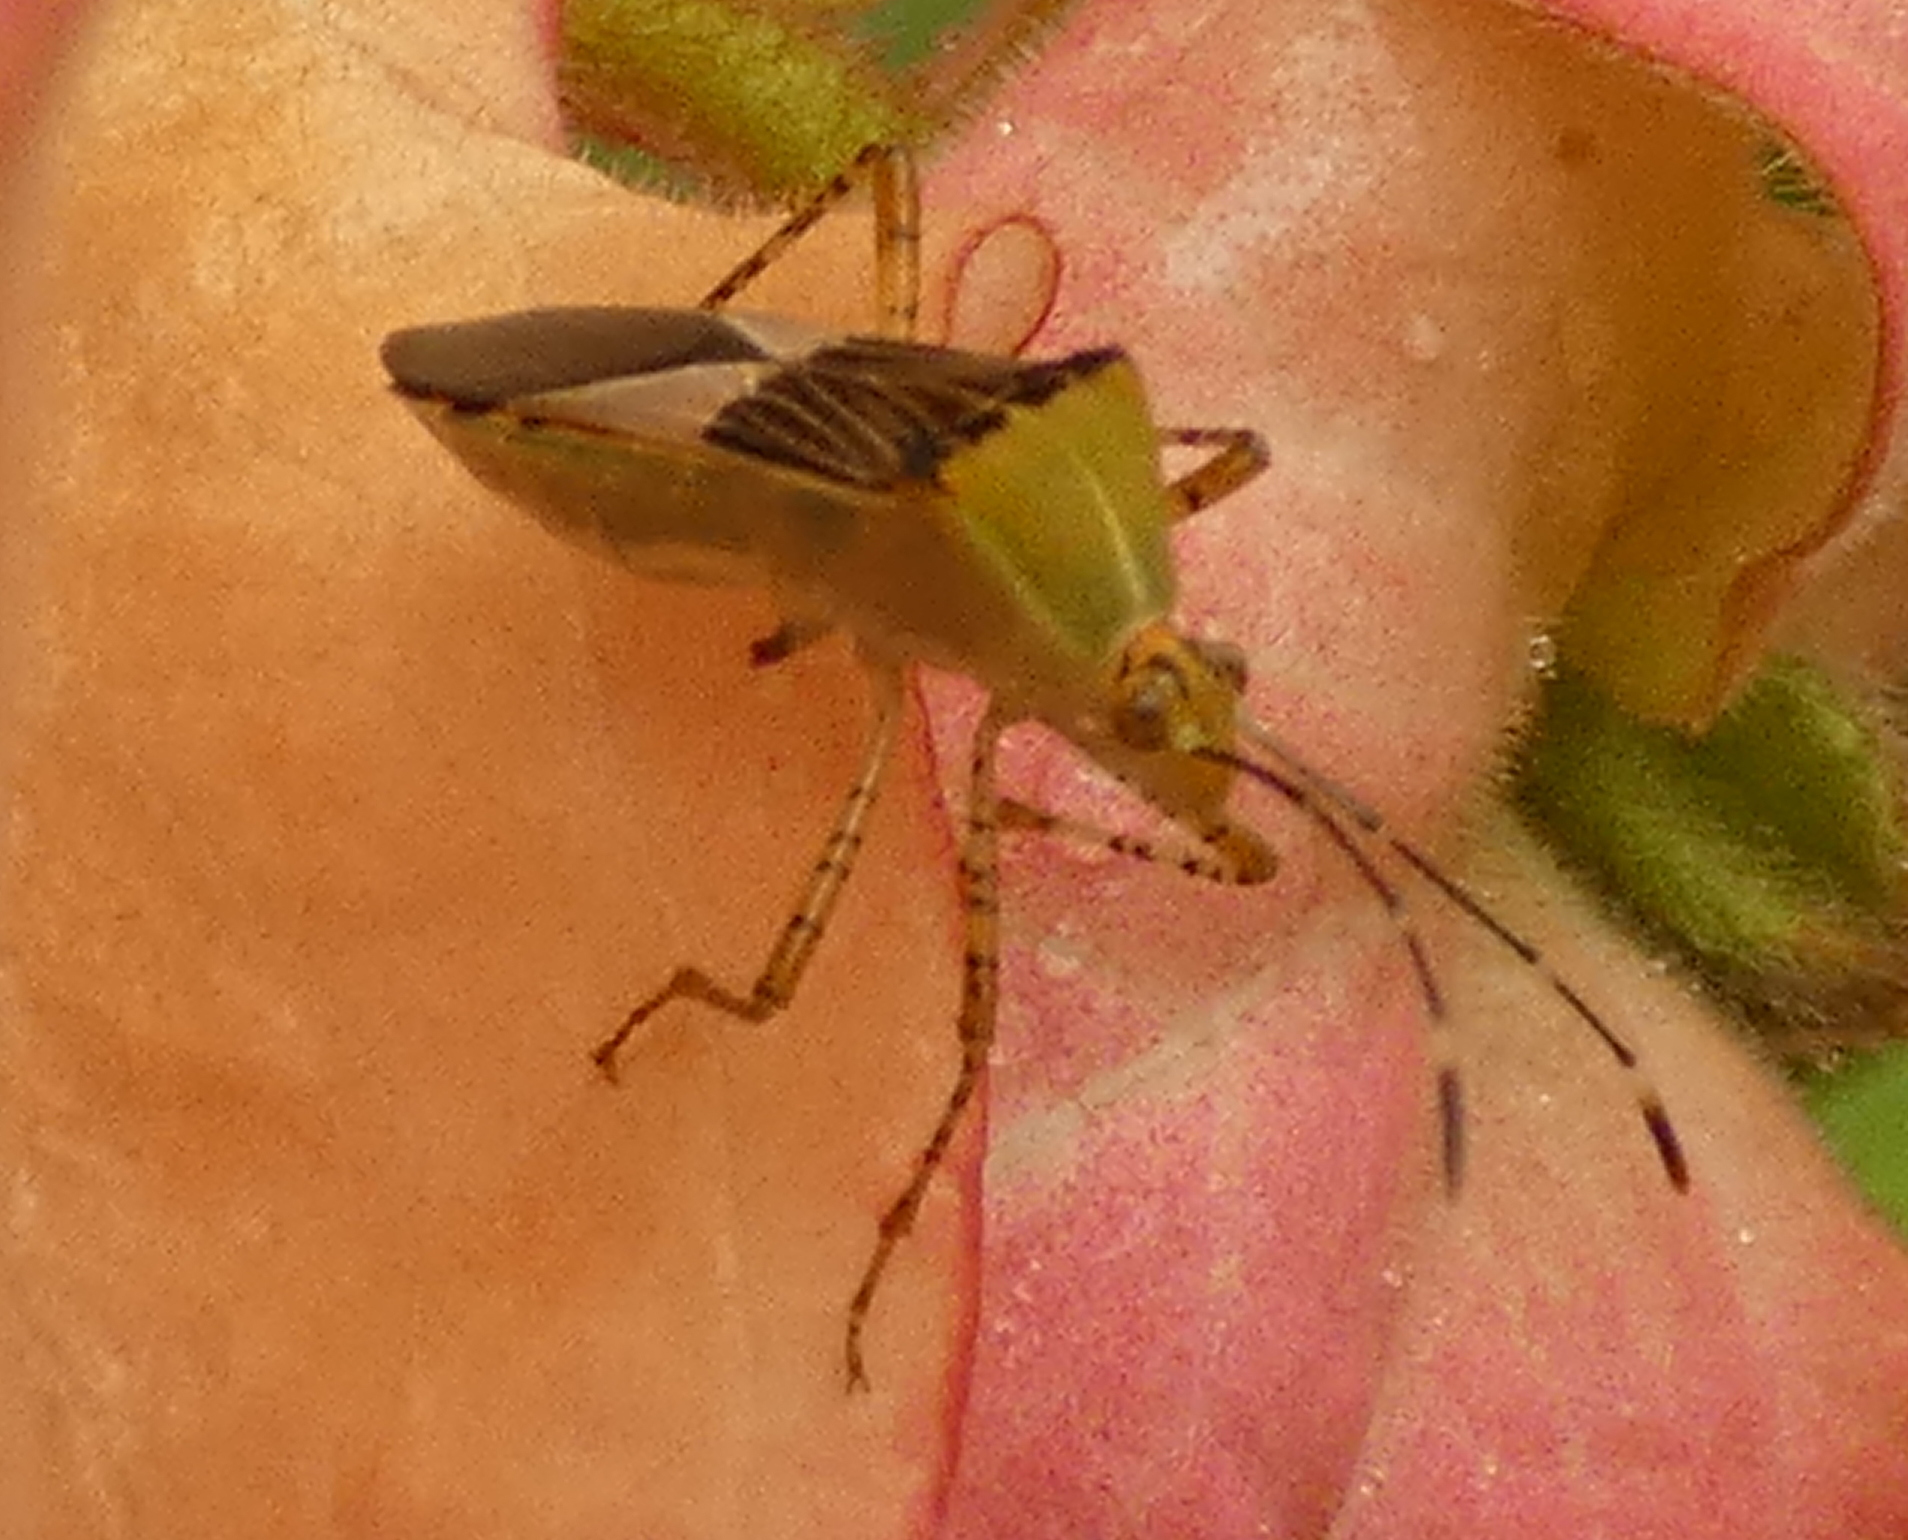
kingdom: Animalia
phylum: Arthropoda
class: Insecta
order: Hemiptera
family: Coreidae
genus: Hypselonotus
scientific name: Hypselonotus fulvus
